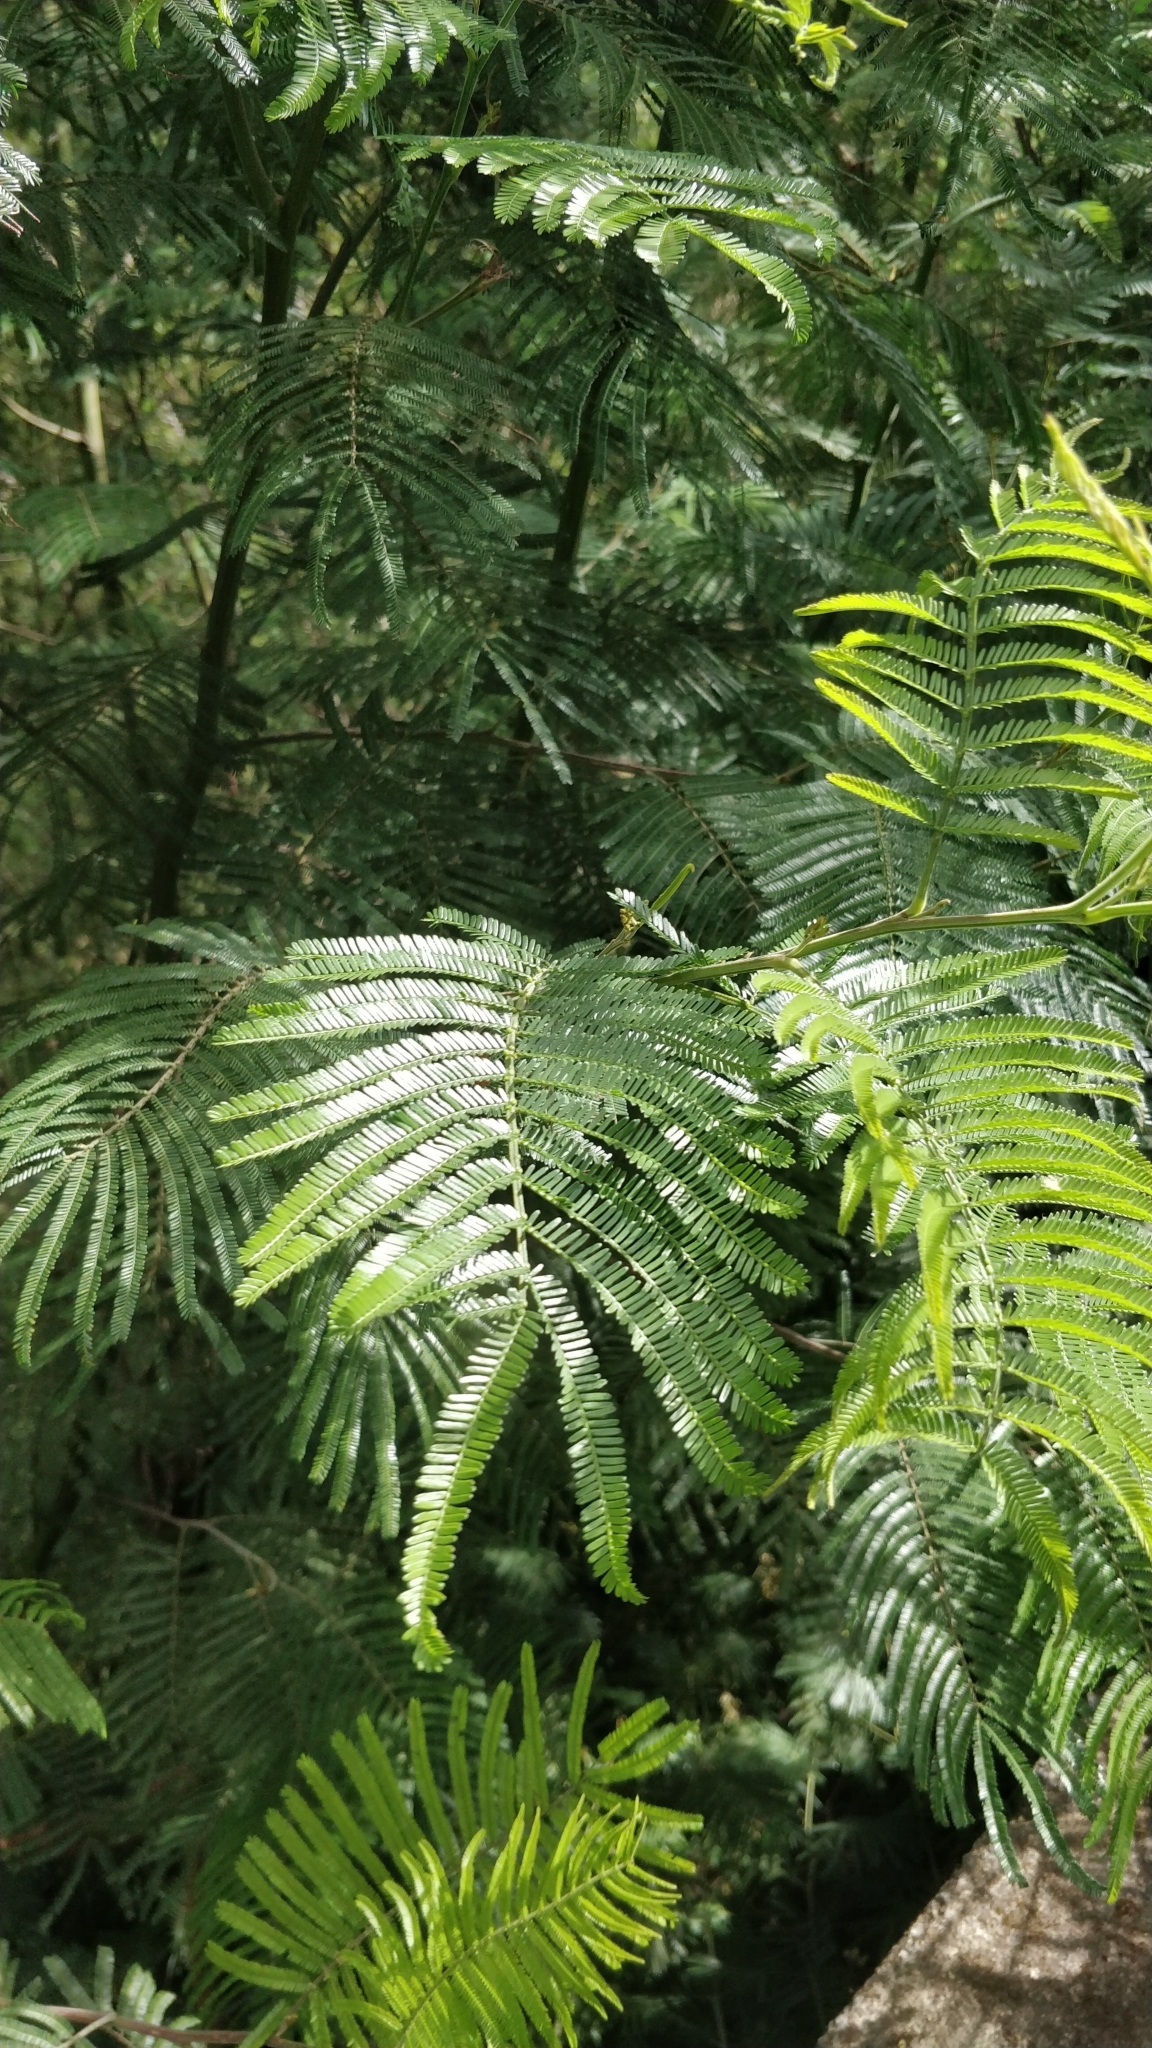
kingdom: Plantae
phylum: Tracheophyta
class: Magnoliopsida
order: Fabales
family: Fabaceae
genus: Acacia
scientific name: Acacia mearnsii
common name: Black wattle
